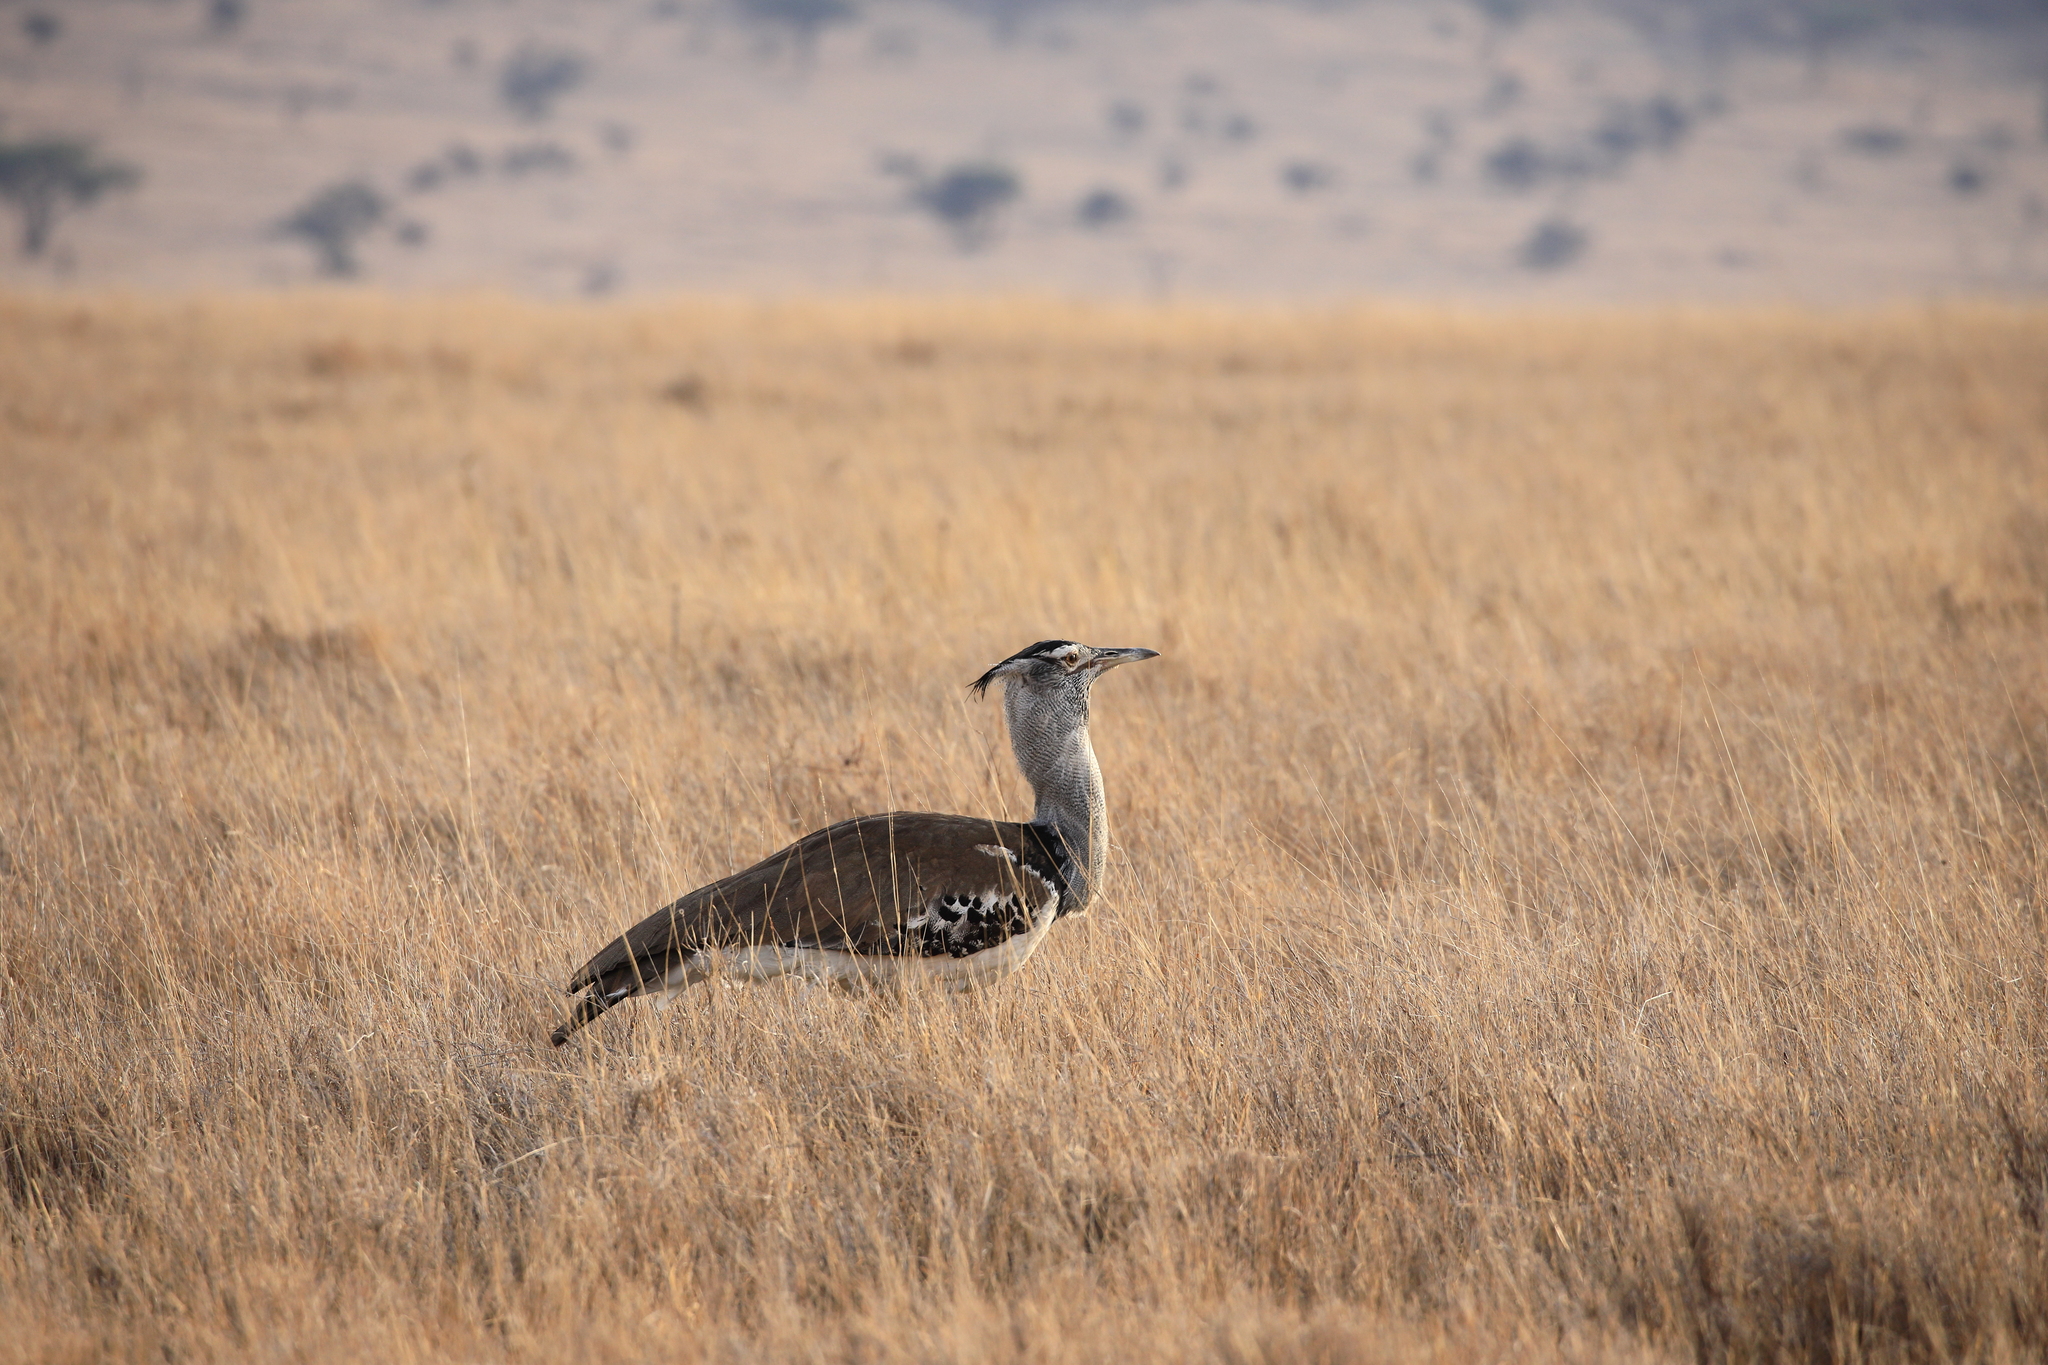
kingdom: Animalia
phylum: Chordata
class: Aves
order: Otidiformes
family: Otididae
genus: Ardeotis
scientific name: Ardeotis kori
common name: Kori bustard
